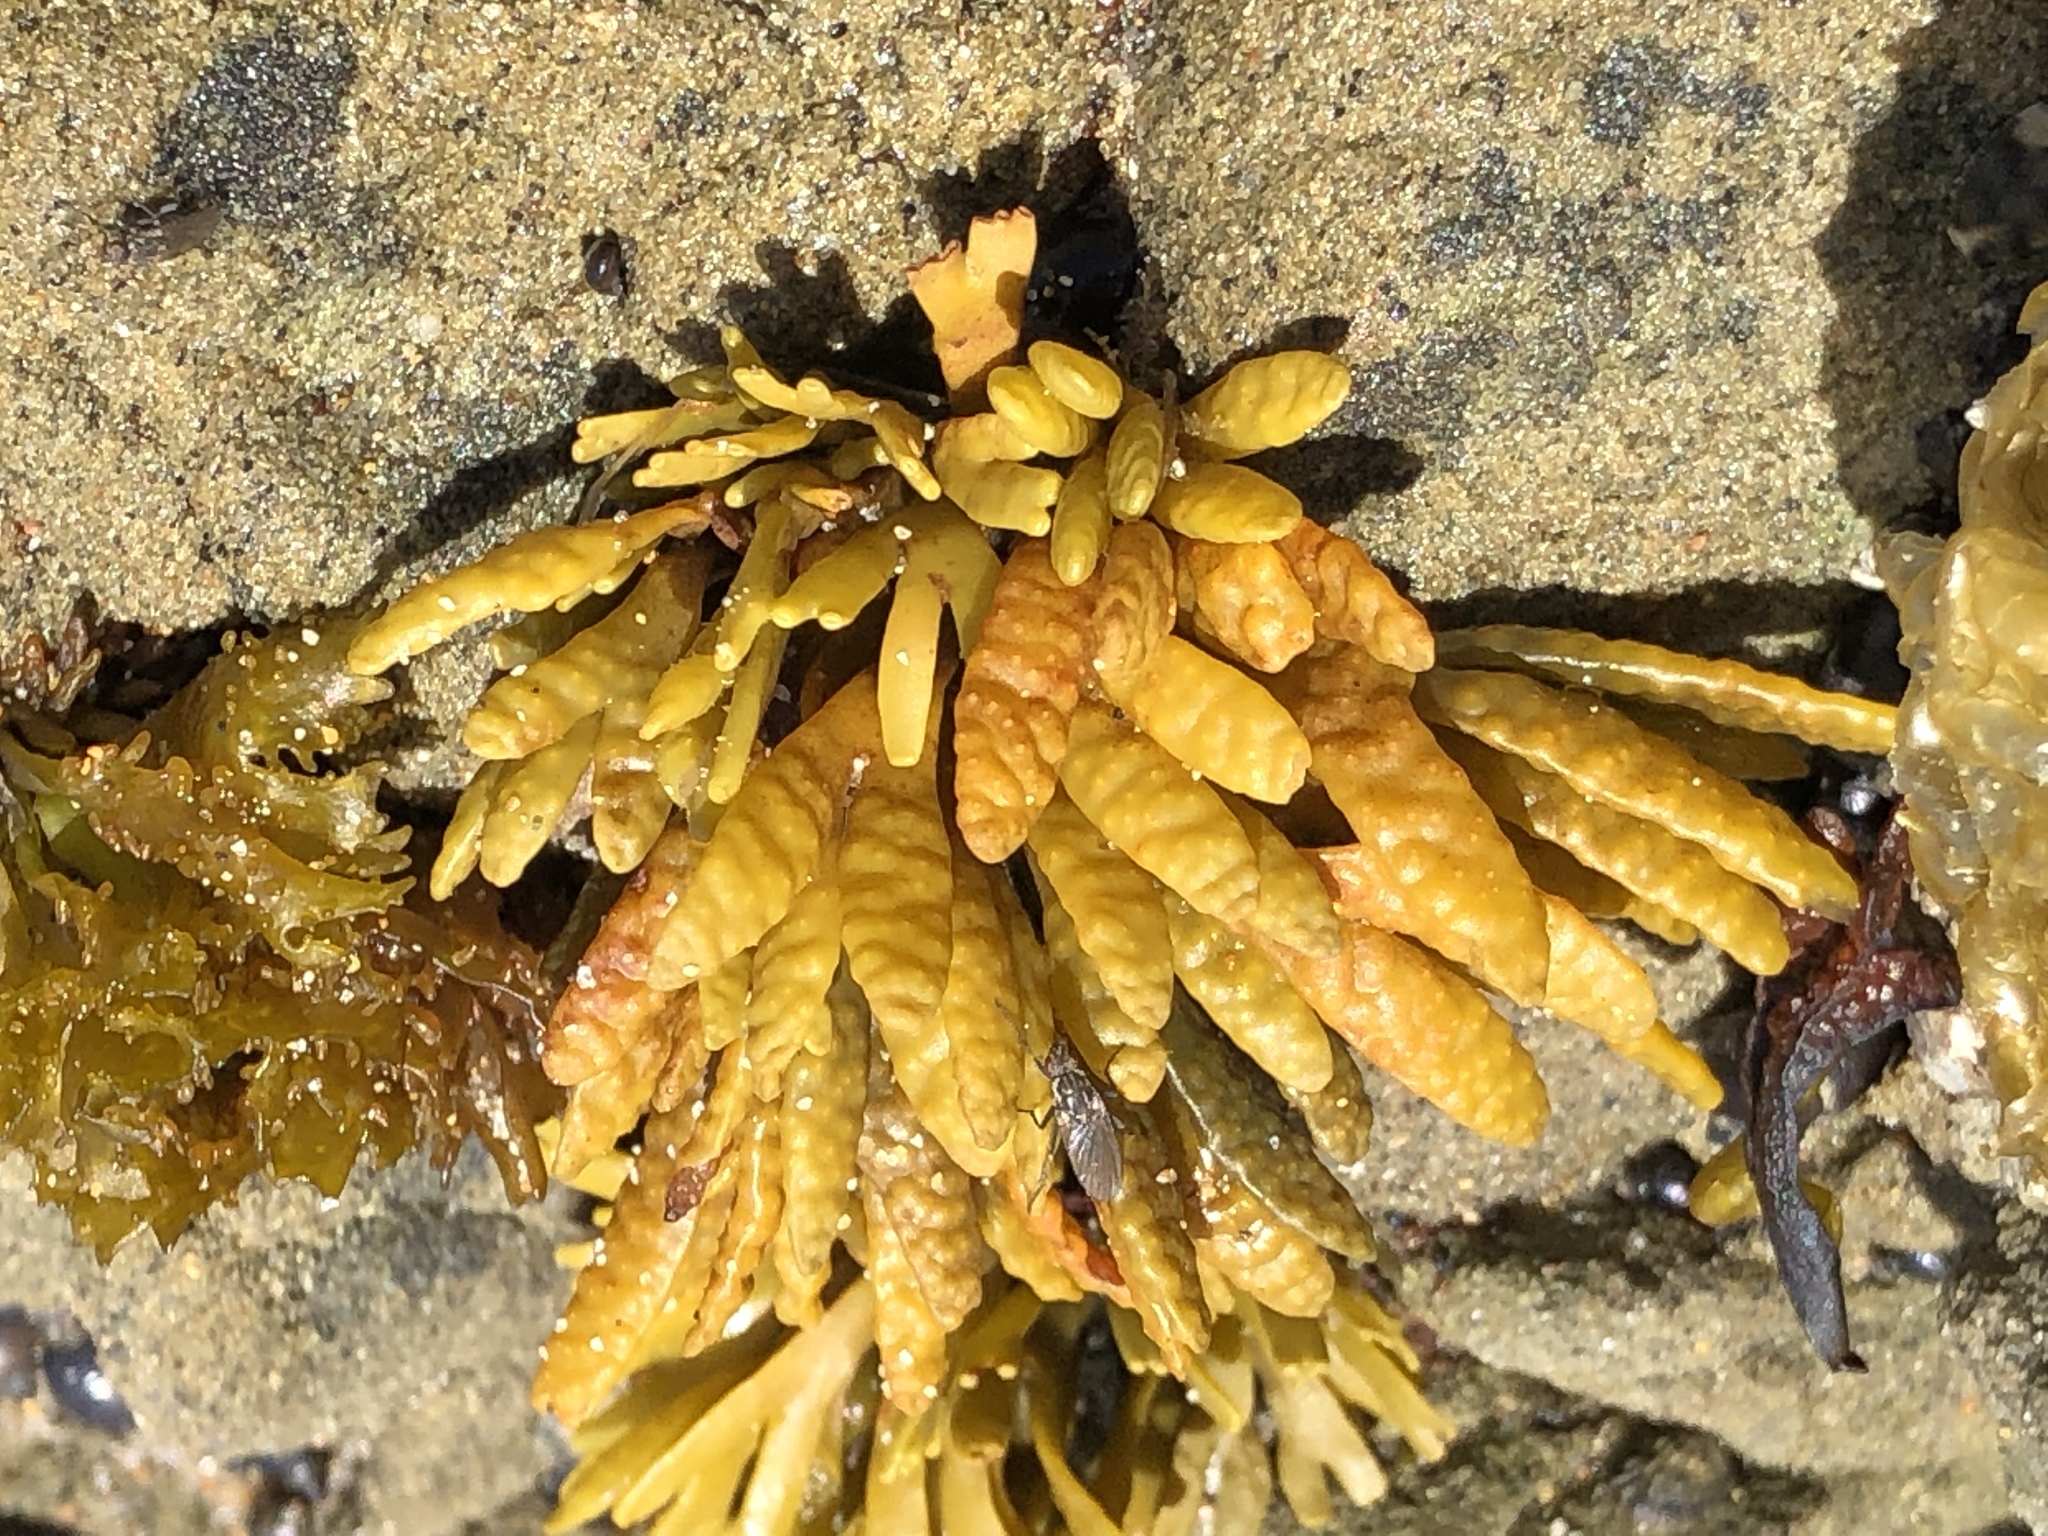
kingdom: Chromista
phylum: Ochrophyta
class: Phaeophyceae
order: Fucales
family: Fucaceae
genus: Pelvetiopsis
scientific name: Pelvetiopsis limitata
